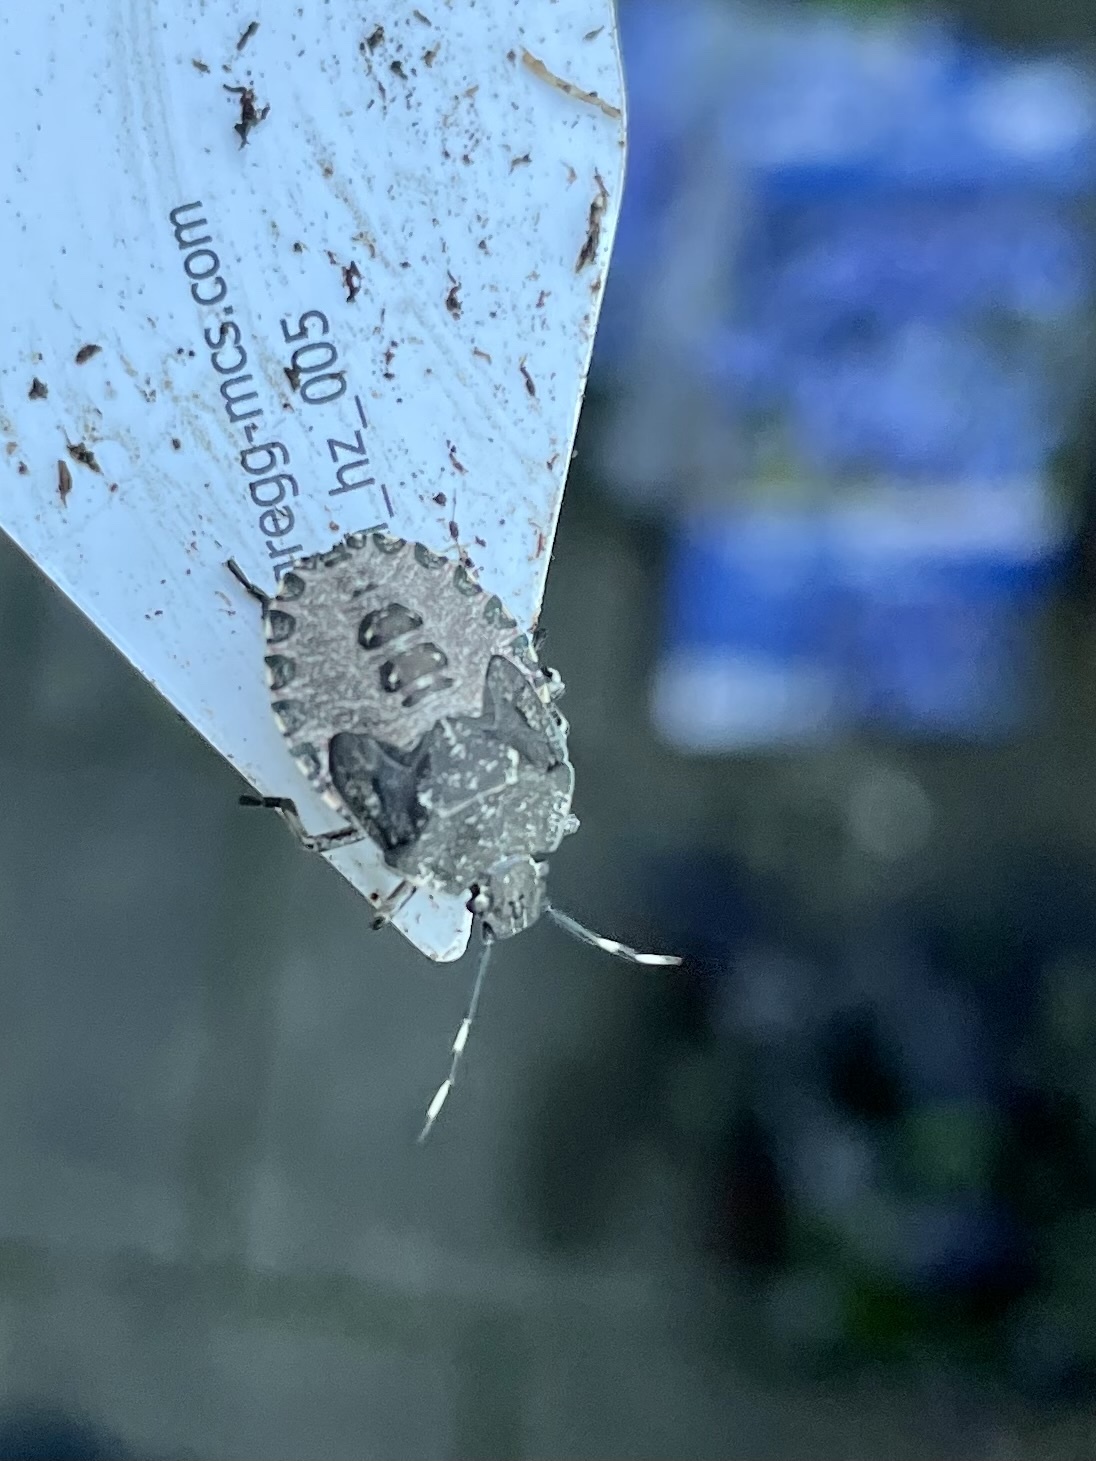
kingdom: Animalia
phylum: Arthropoda
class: Insecta
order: Hemiptera
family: Pentatomidae
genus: Rhaphigaster
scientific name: Rhaphigaster nebulosa
